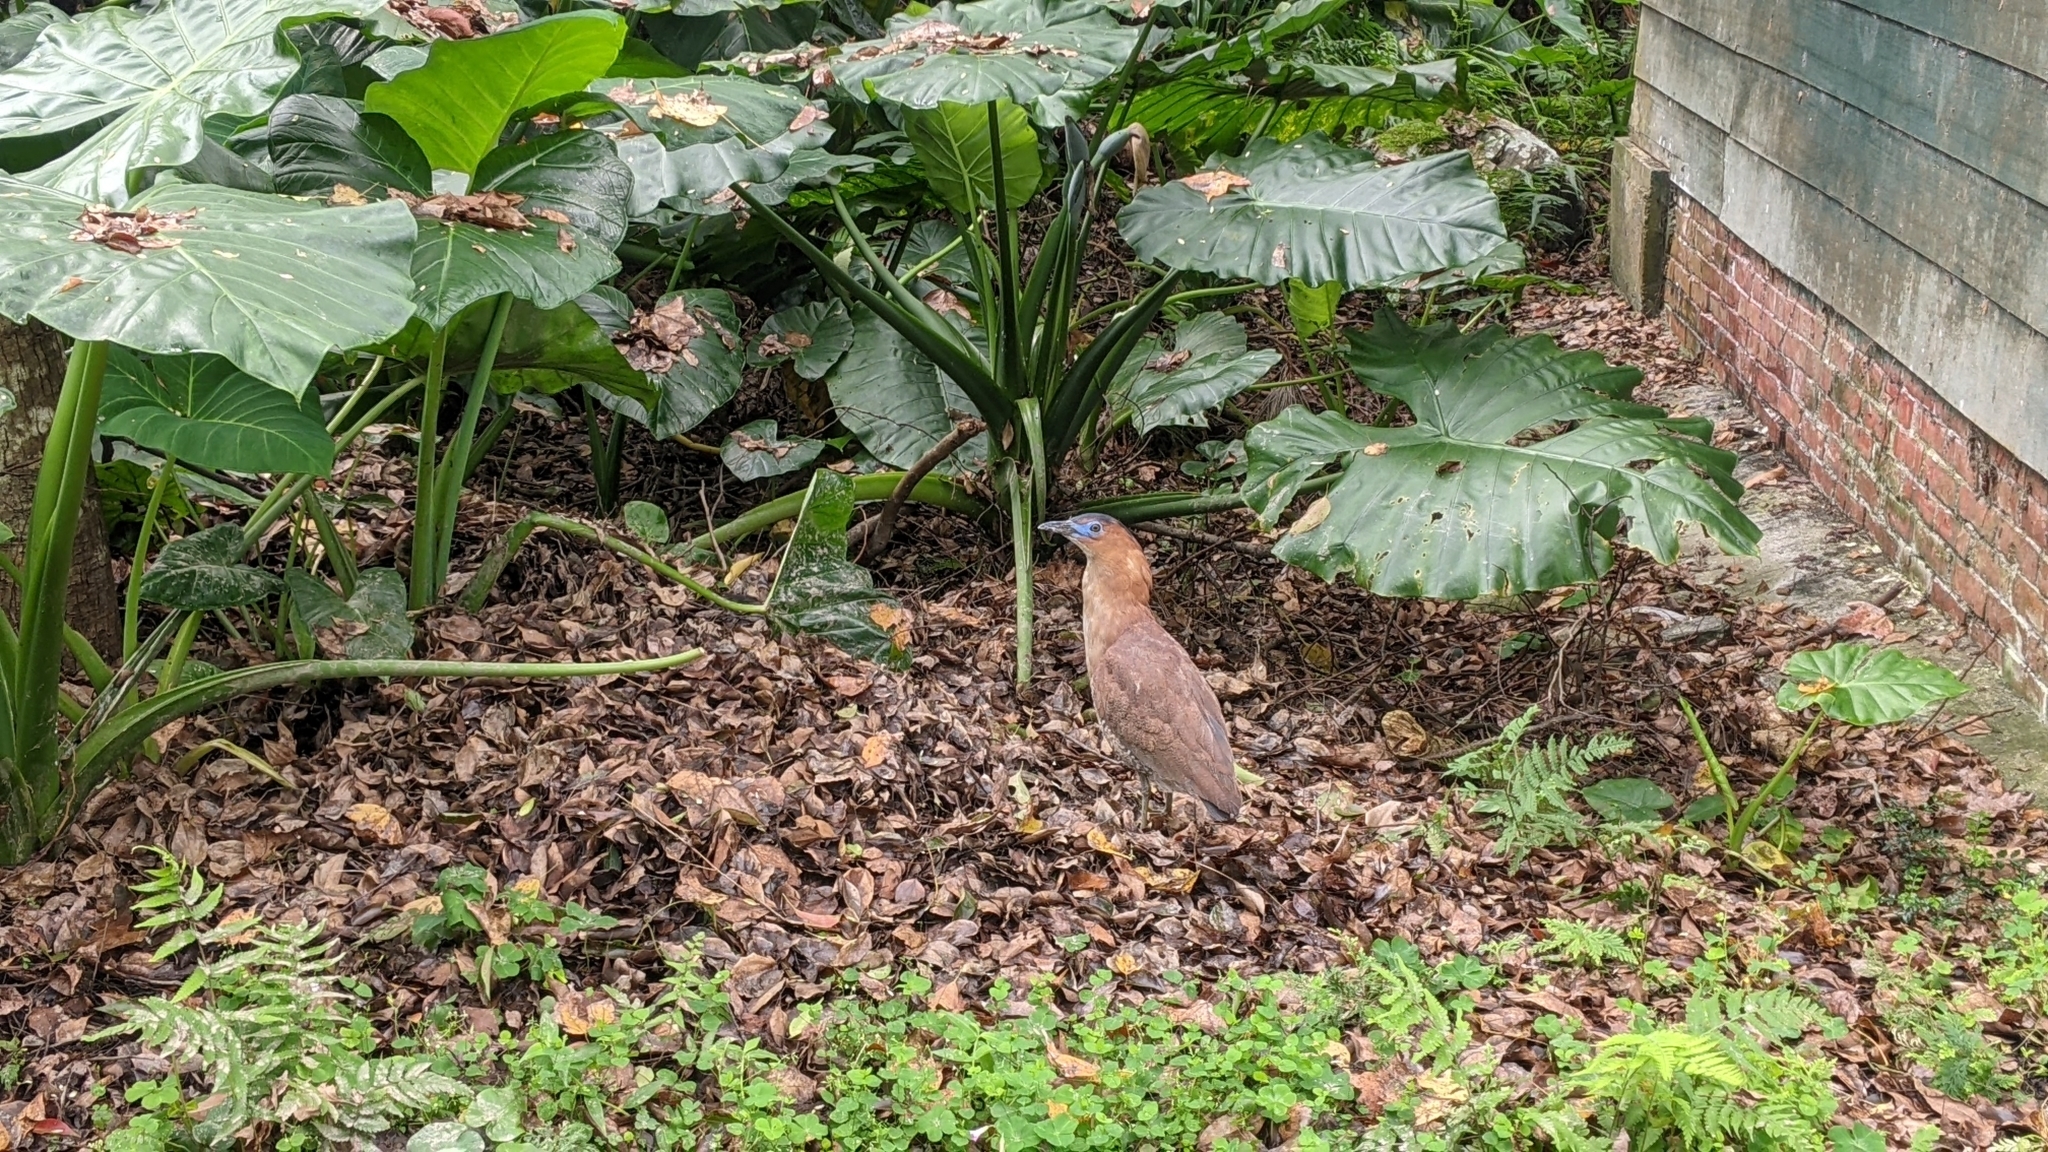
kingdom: Animalia
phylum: Chordata
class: Aves
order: Pelecaniformes
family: Ardeidae
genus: Gorsachius
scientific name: Gorsachius melanolophus
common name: Malayan night heron
